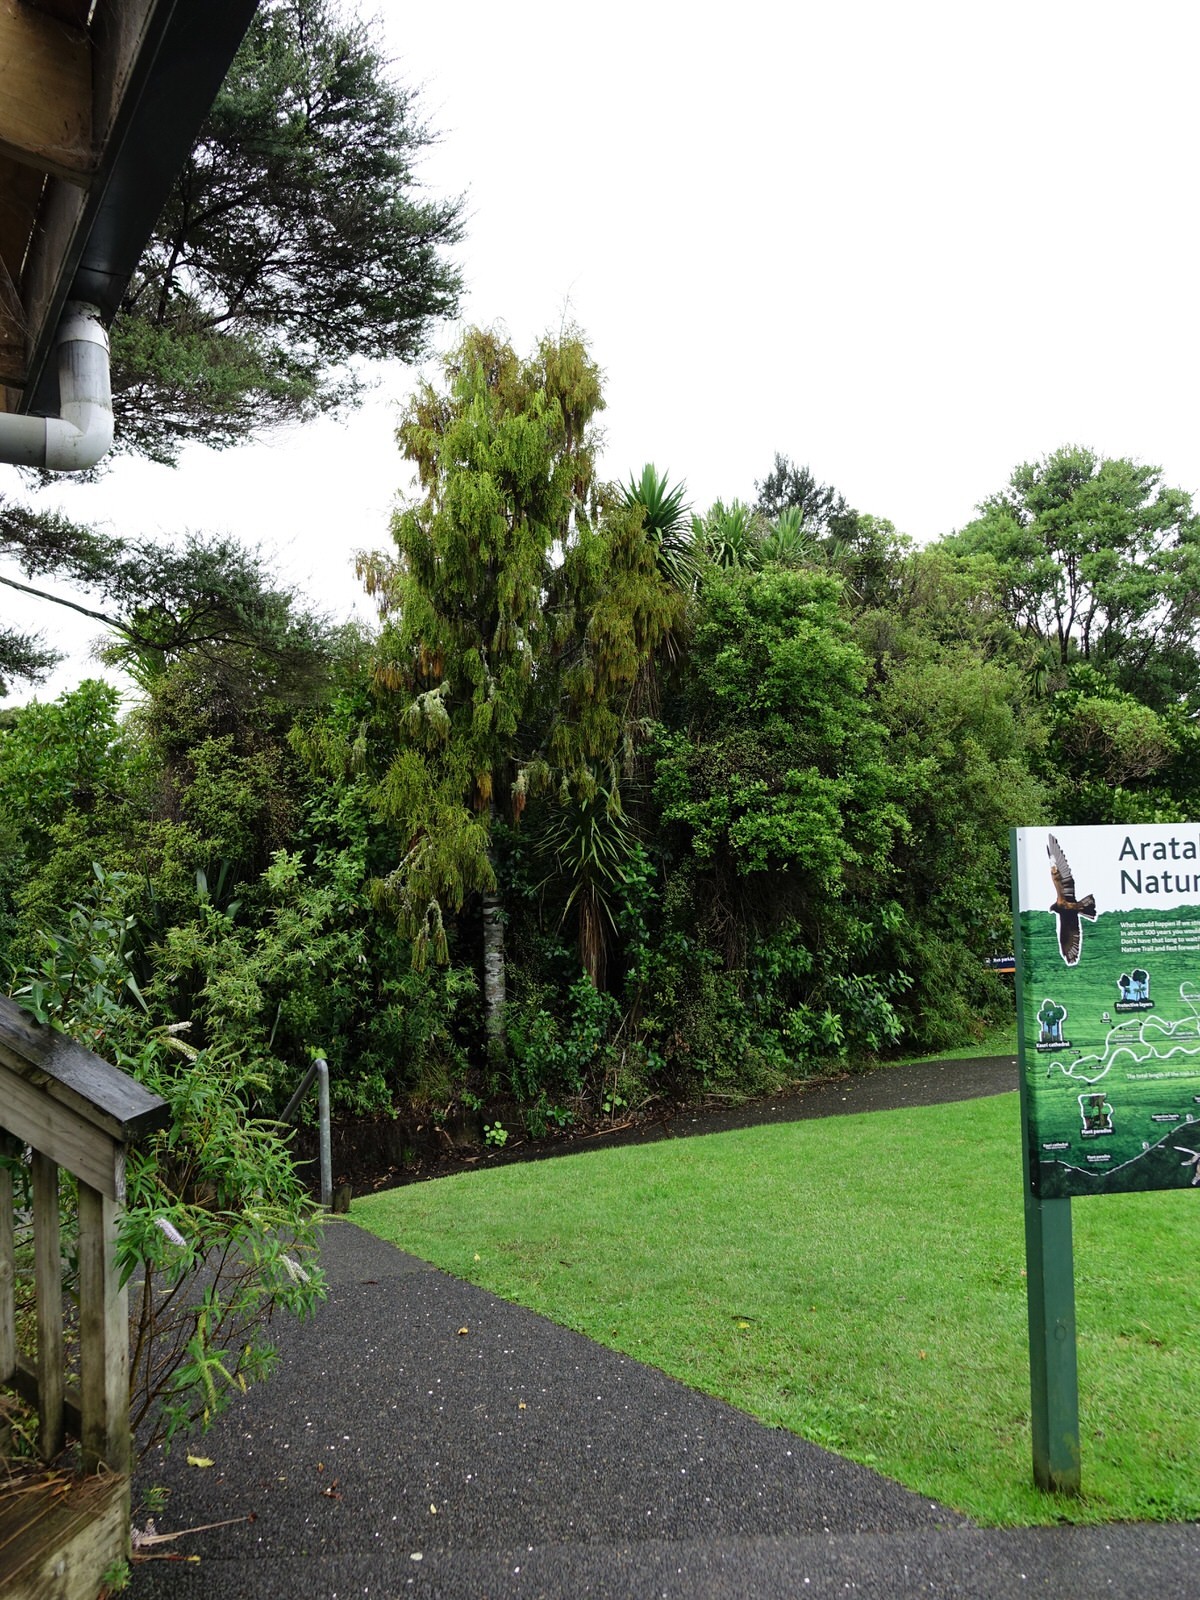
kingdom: Plantae
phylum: Tracheophyta
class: Pinopsida
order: Pinales
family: Podocarpaceae
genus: Dacrydium
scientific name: Dacrydium cupressinum
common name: Red pine
